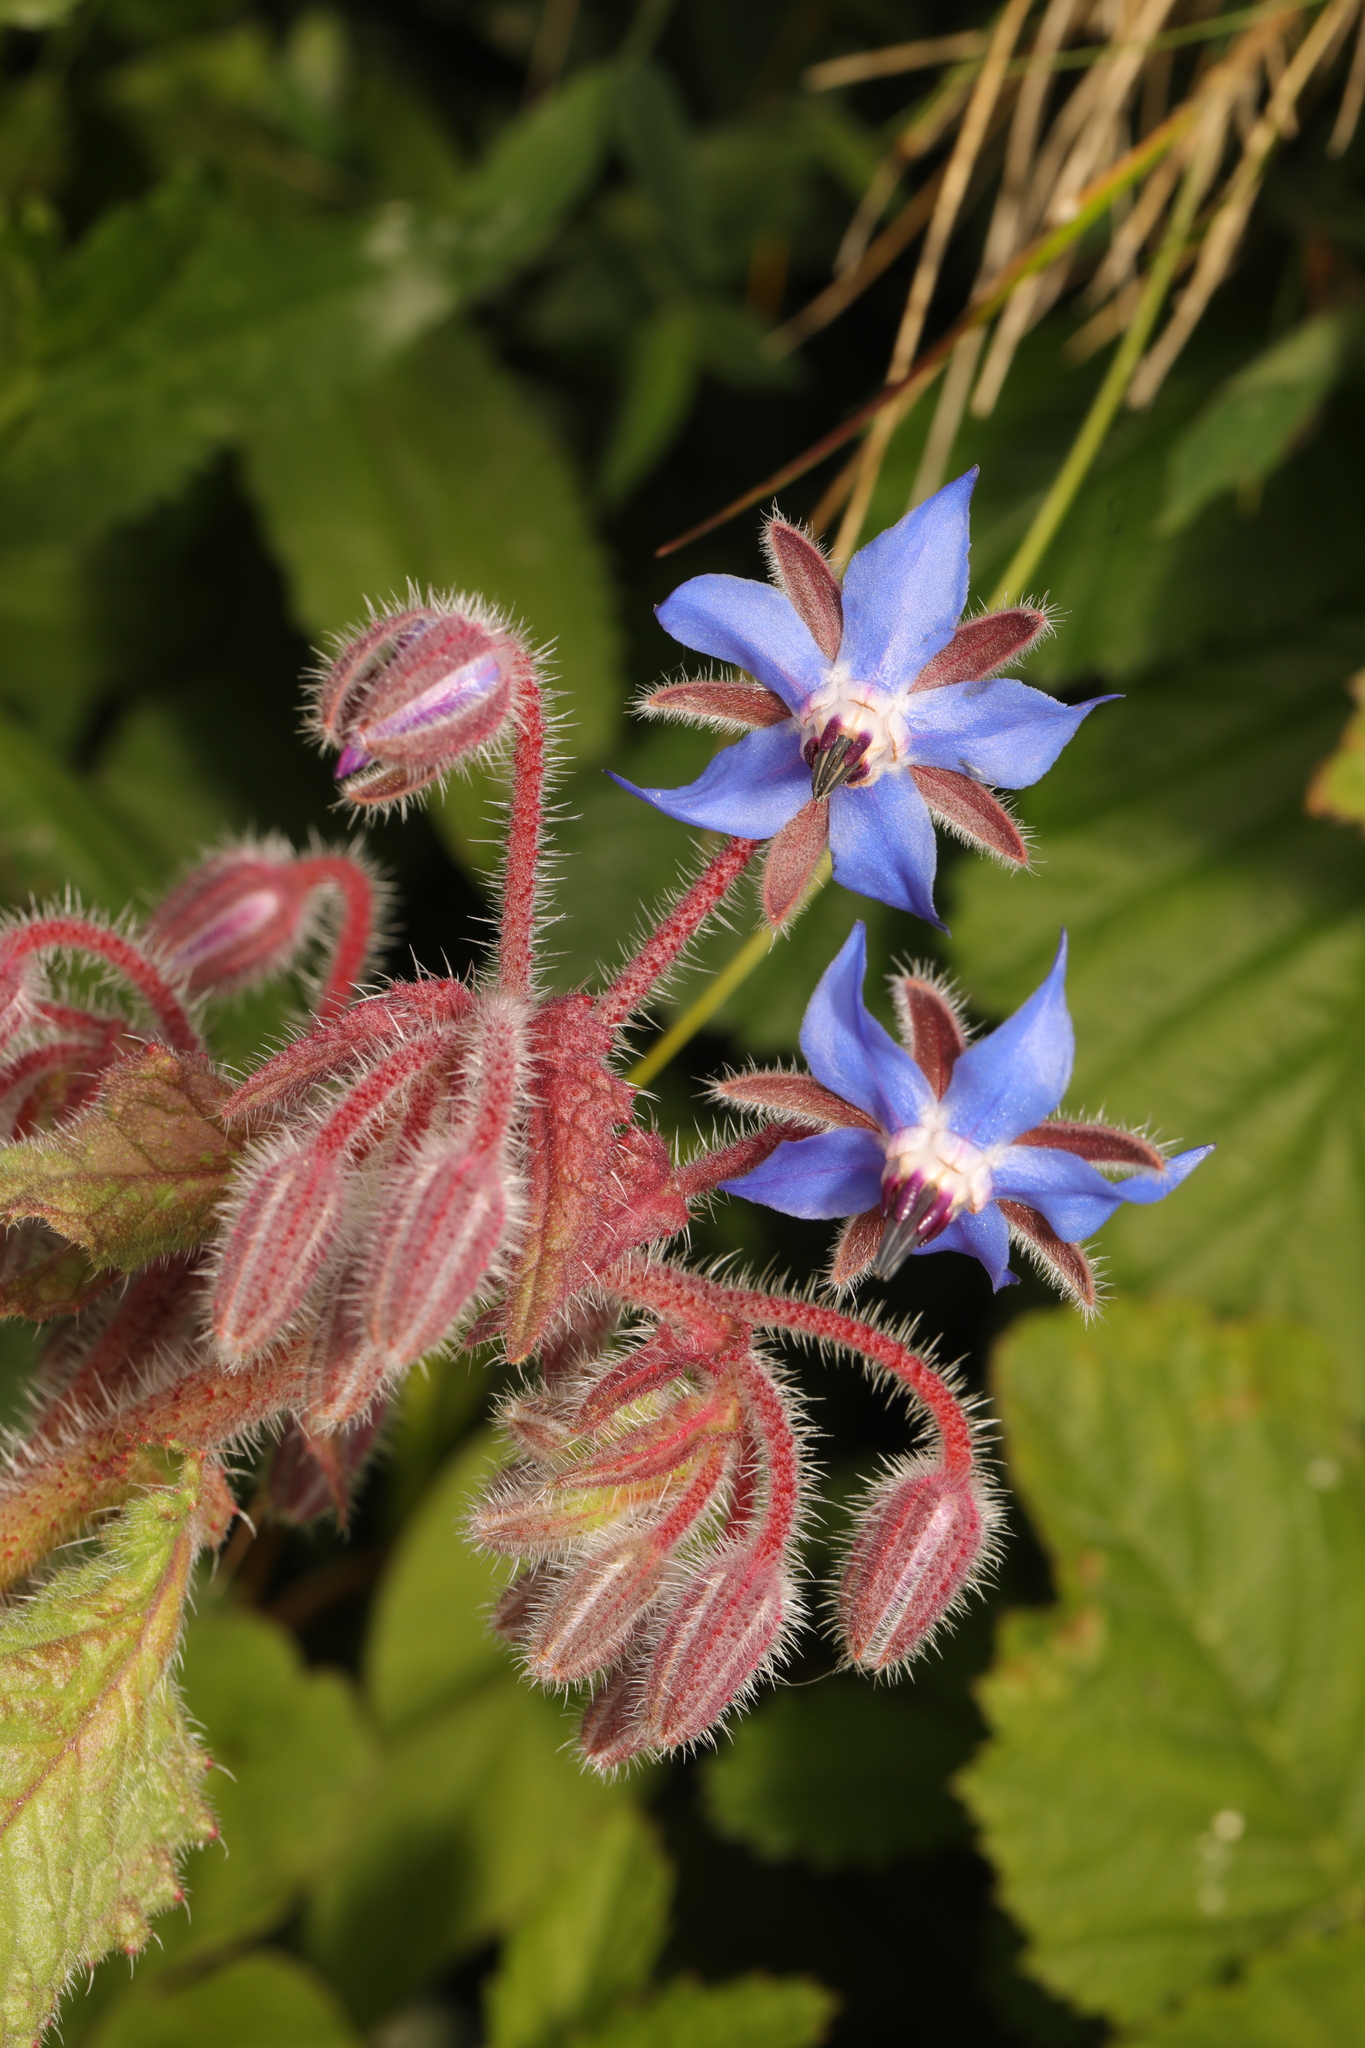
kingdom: Plantae
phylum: Tracheophyta
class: Magnoliopsida
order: Boraginales
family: Boraginaceae
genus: Borago
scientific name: Borago officinalis
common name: Borage
